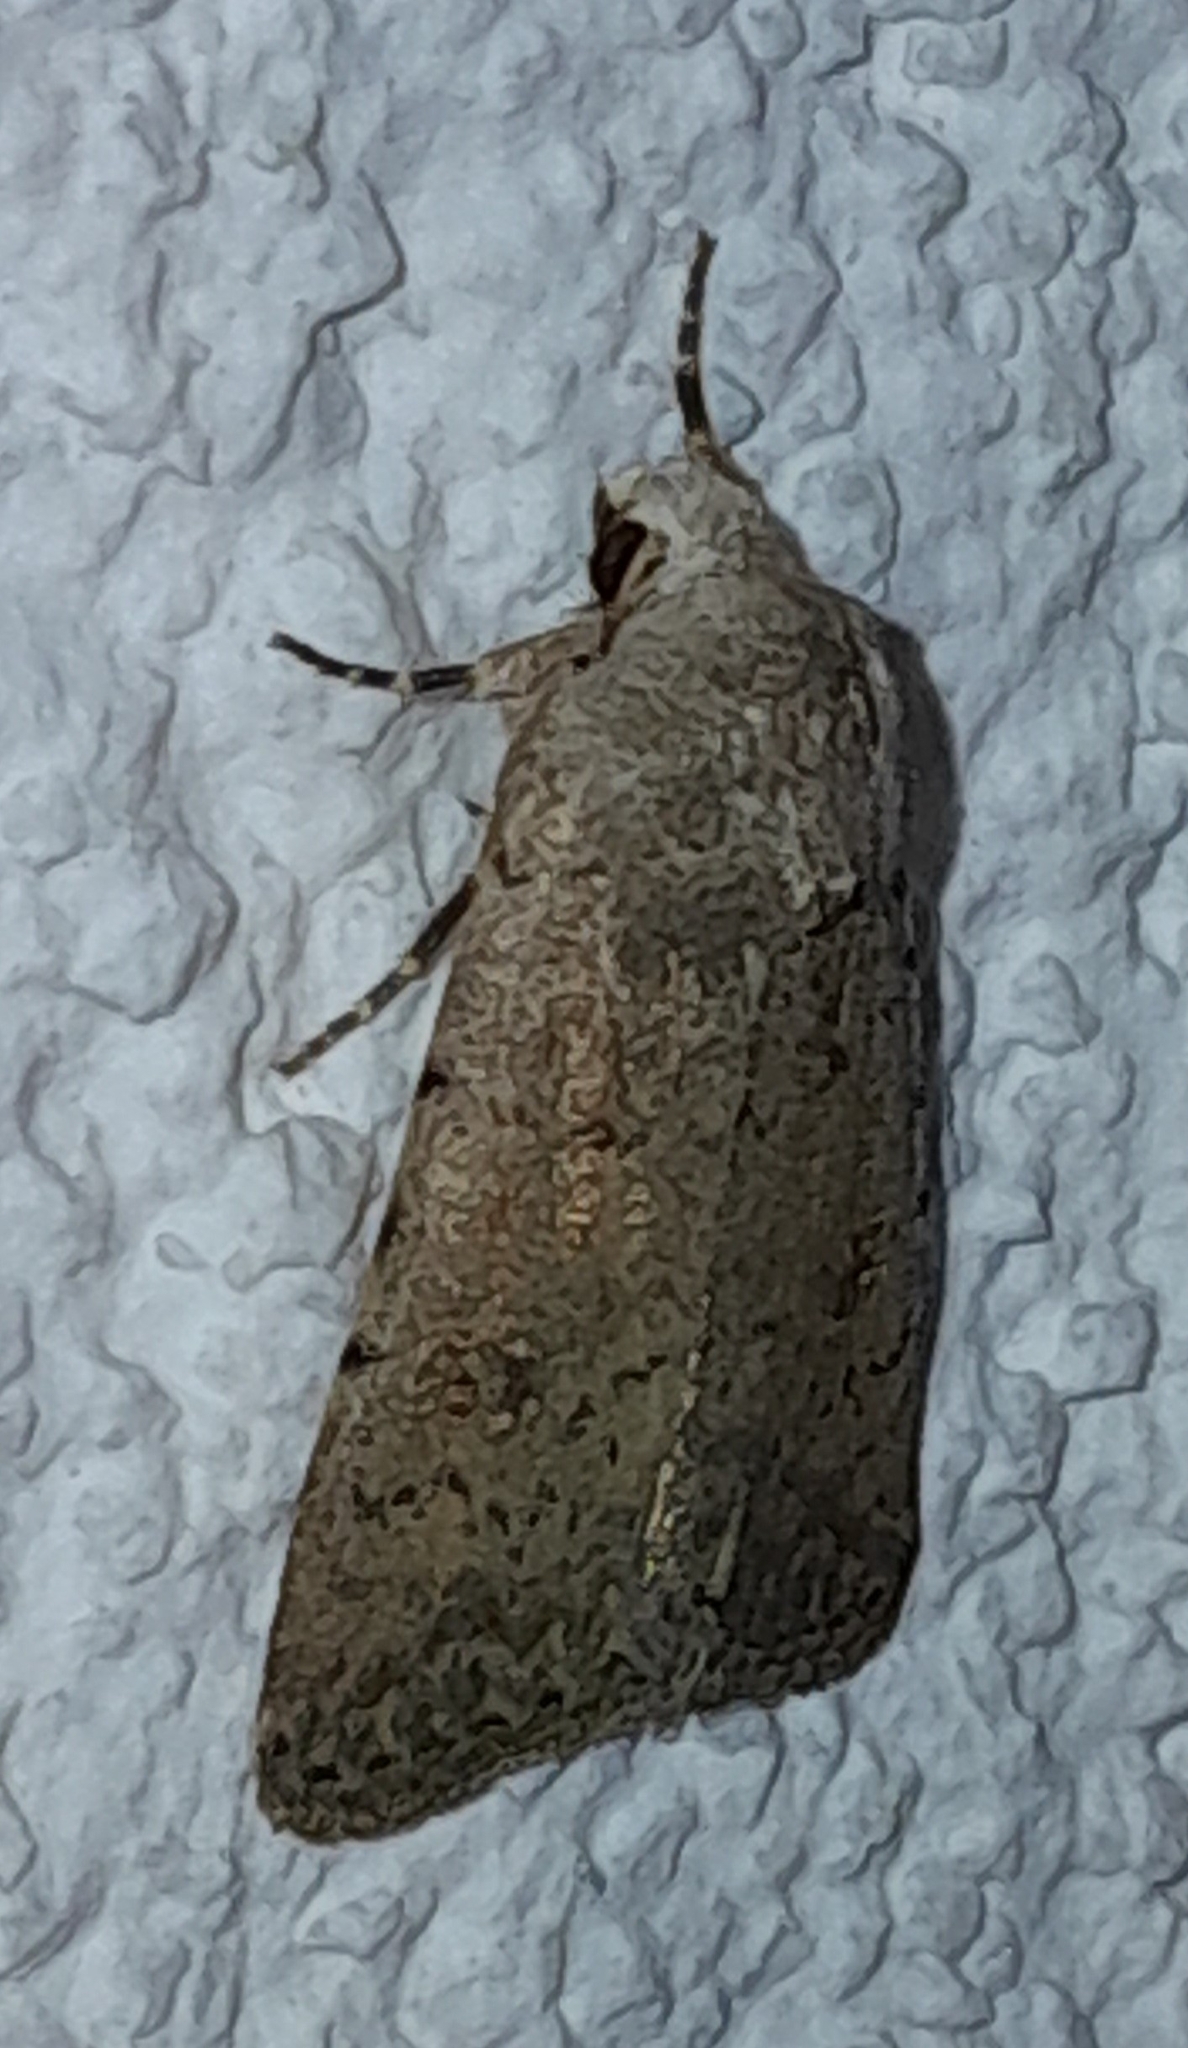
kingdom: Animalia
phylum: Arthropoda
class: Insecta
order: Lepidoptera
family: Noctuidae
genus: Caradrina
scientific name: Caradrina clavipalpis
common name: Pale mottled willow
